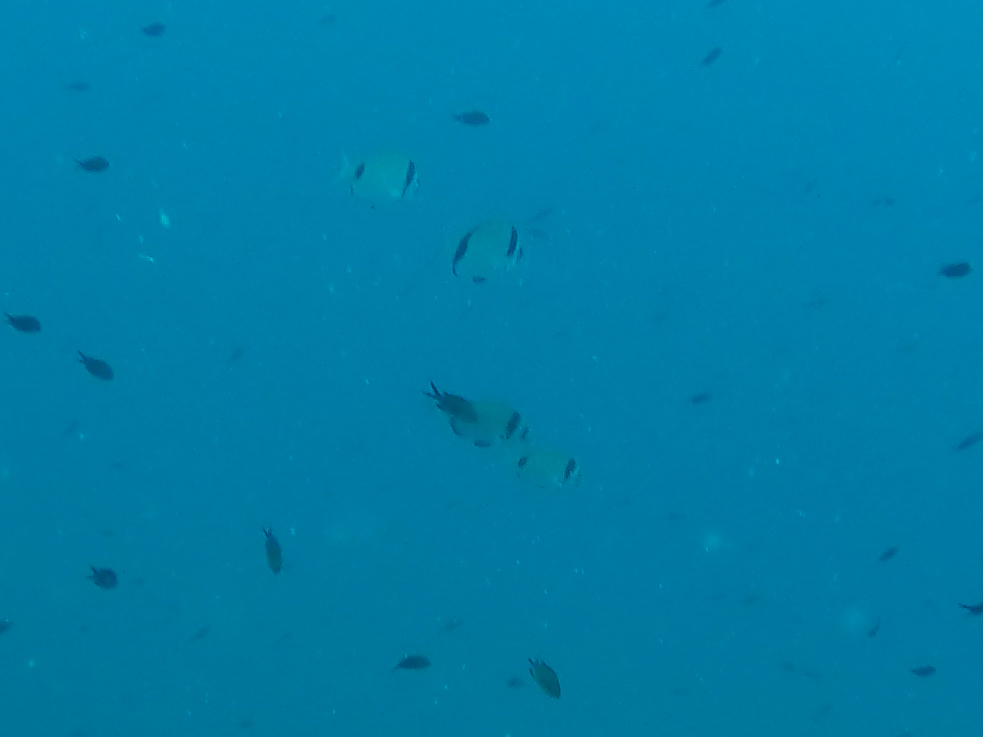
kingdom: Animalia
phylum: Chordata
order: Perciformes
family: Sparidae
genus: Diplodus
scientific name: Diplodus vulgaris
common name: Common two-banded seabream
